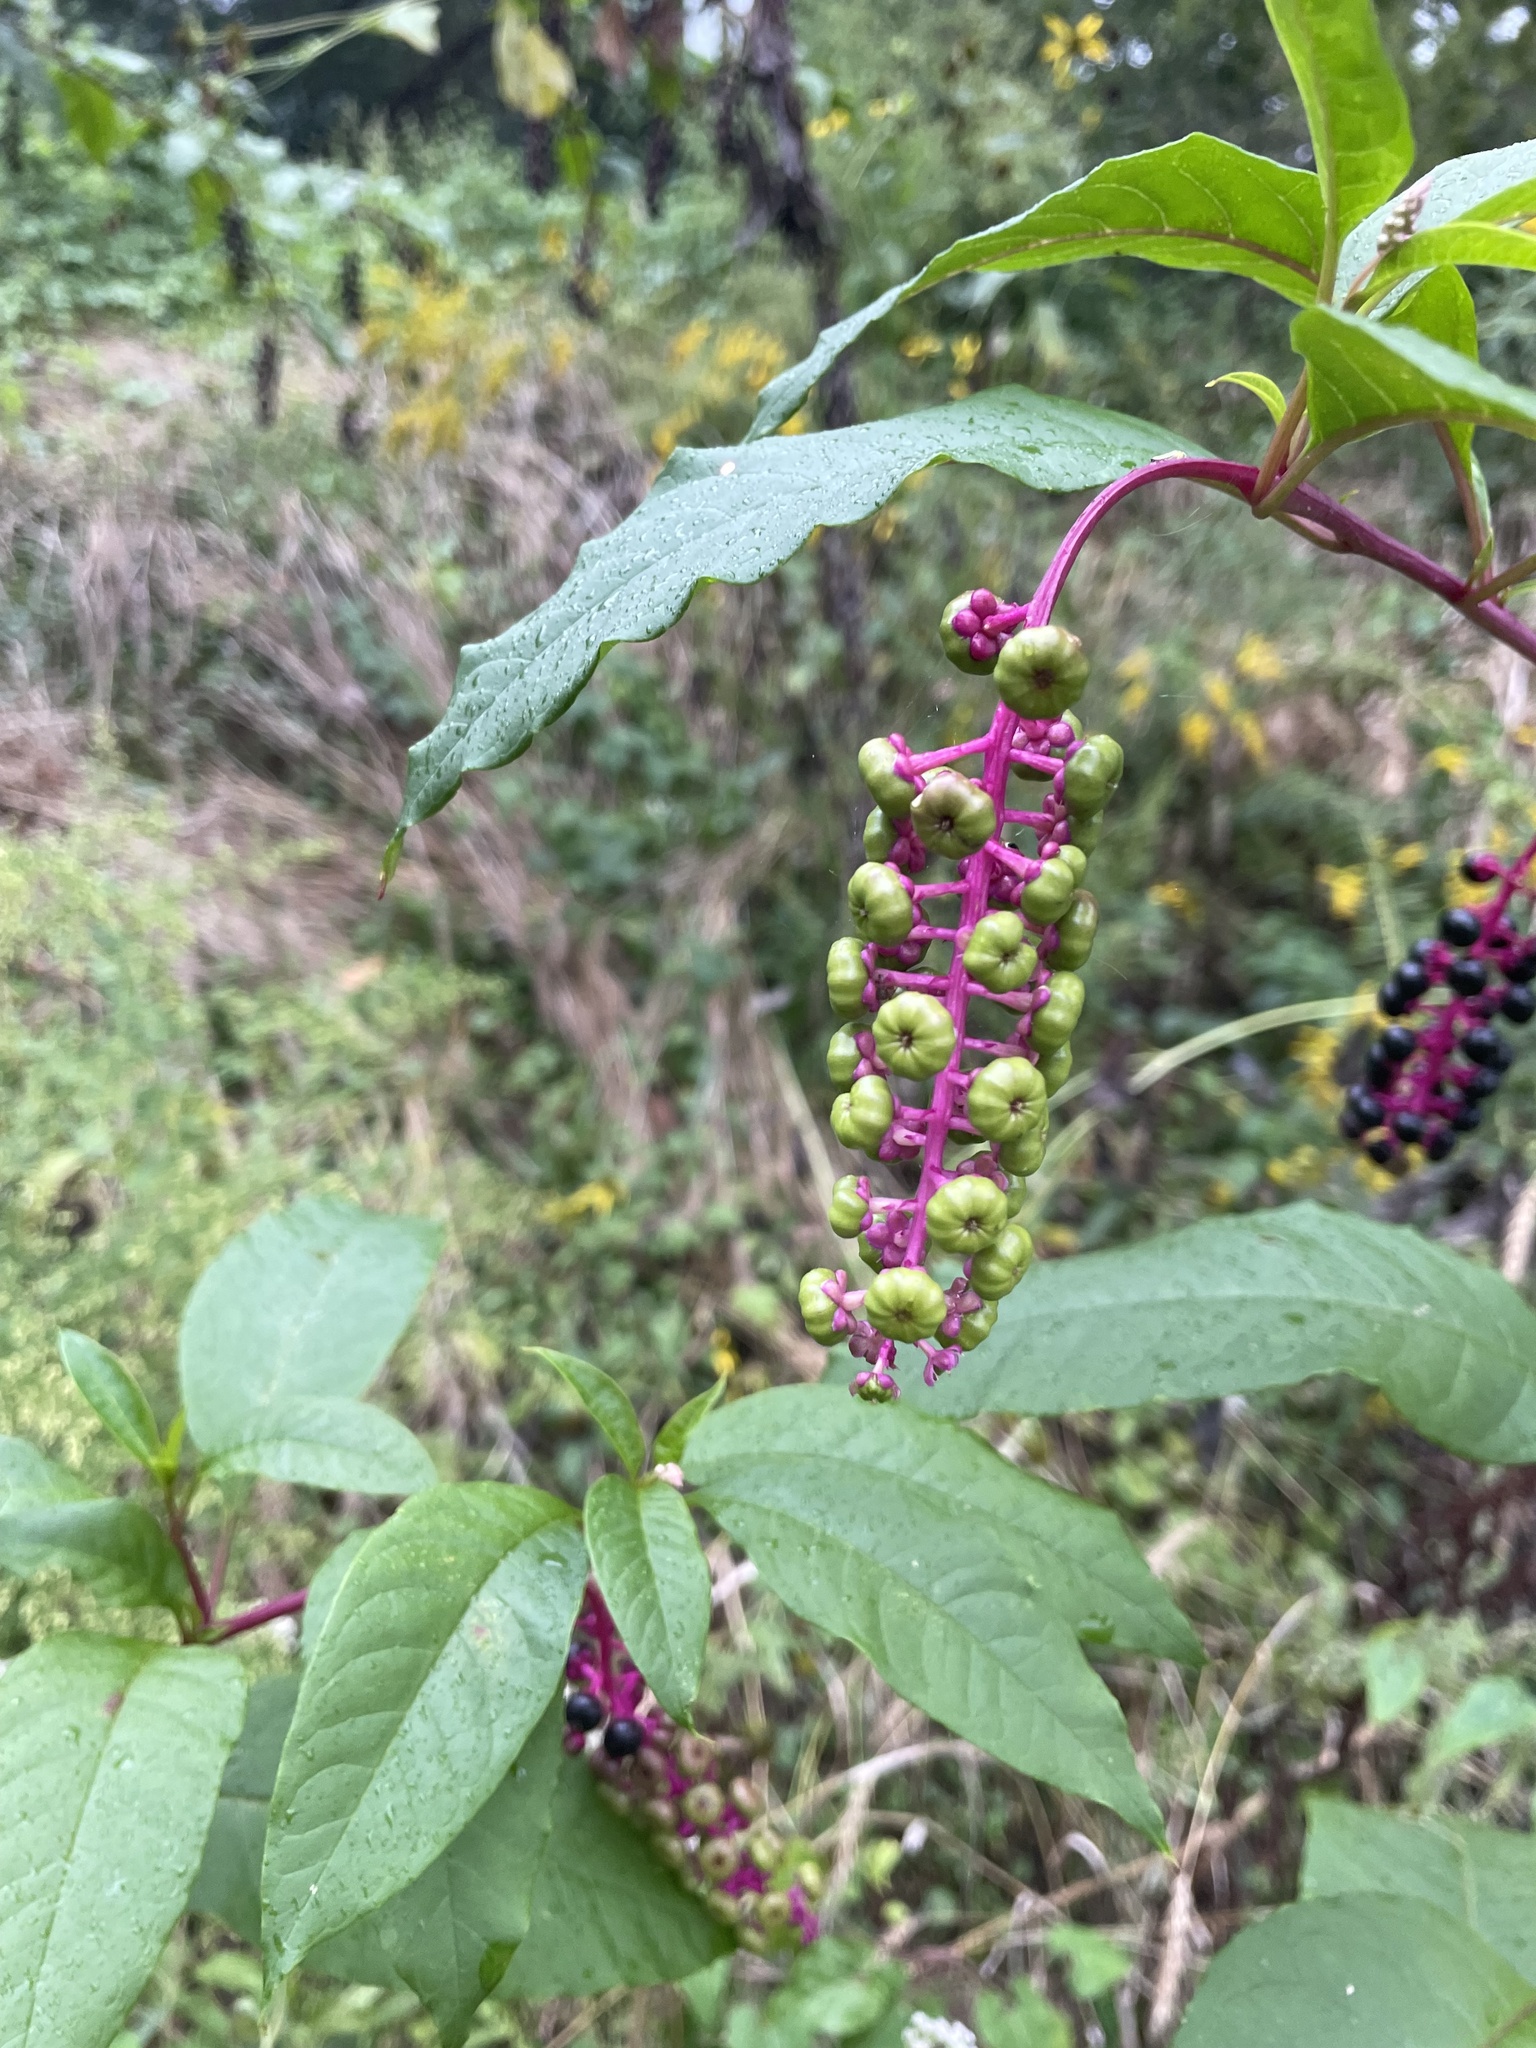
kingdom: Plantae
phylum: Tracheophyta
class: Magnoliopsida
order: Caryophyllales
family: Phytolaccaceae
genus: Phytolacca
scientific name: Phytolacca americana
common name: American pokeweed
